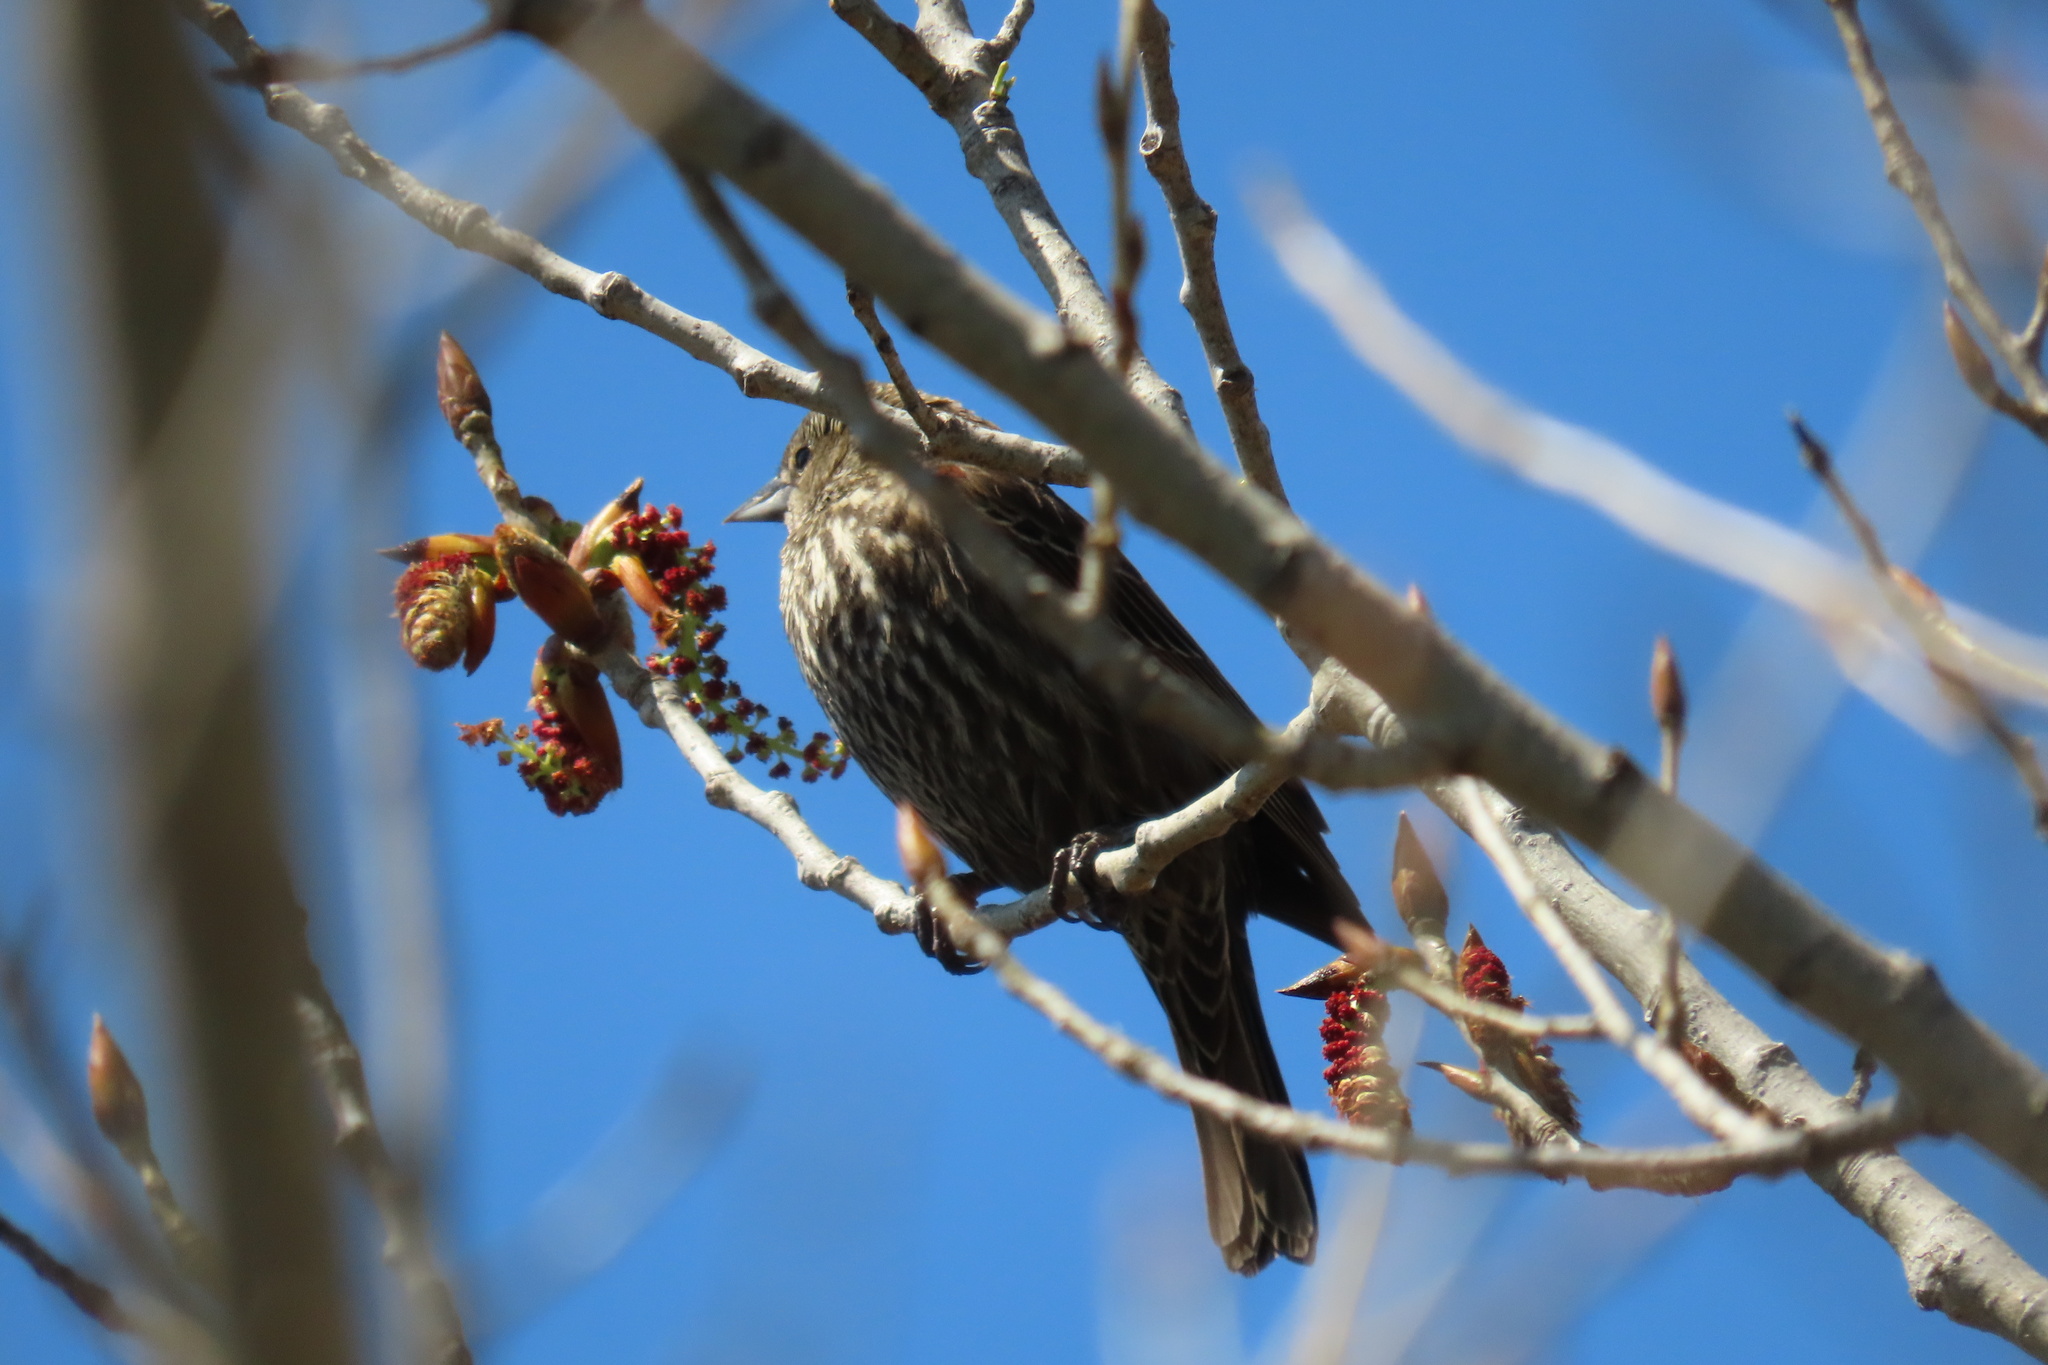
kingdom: Animalia
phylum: Chordata
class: Aves
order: Passeriformes
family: Icteridae
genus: Agelaius
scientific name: Agelaius phoeniceus
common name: Red-winged blackbird
